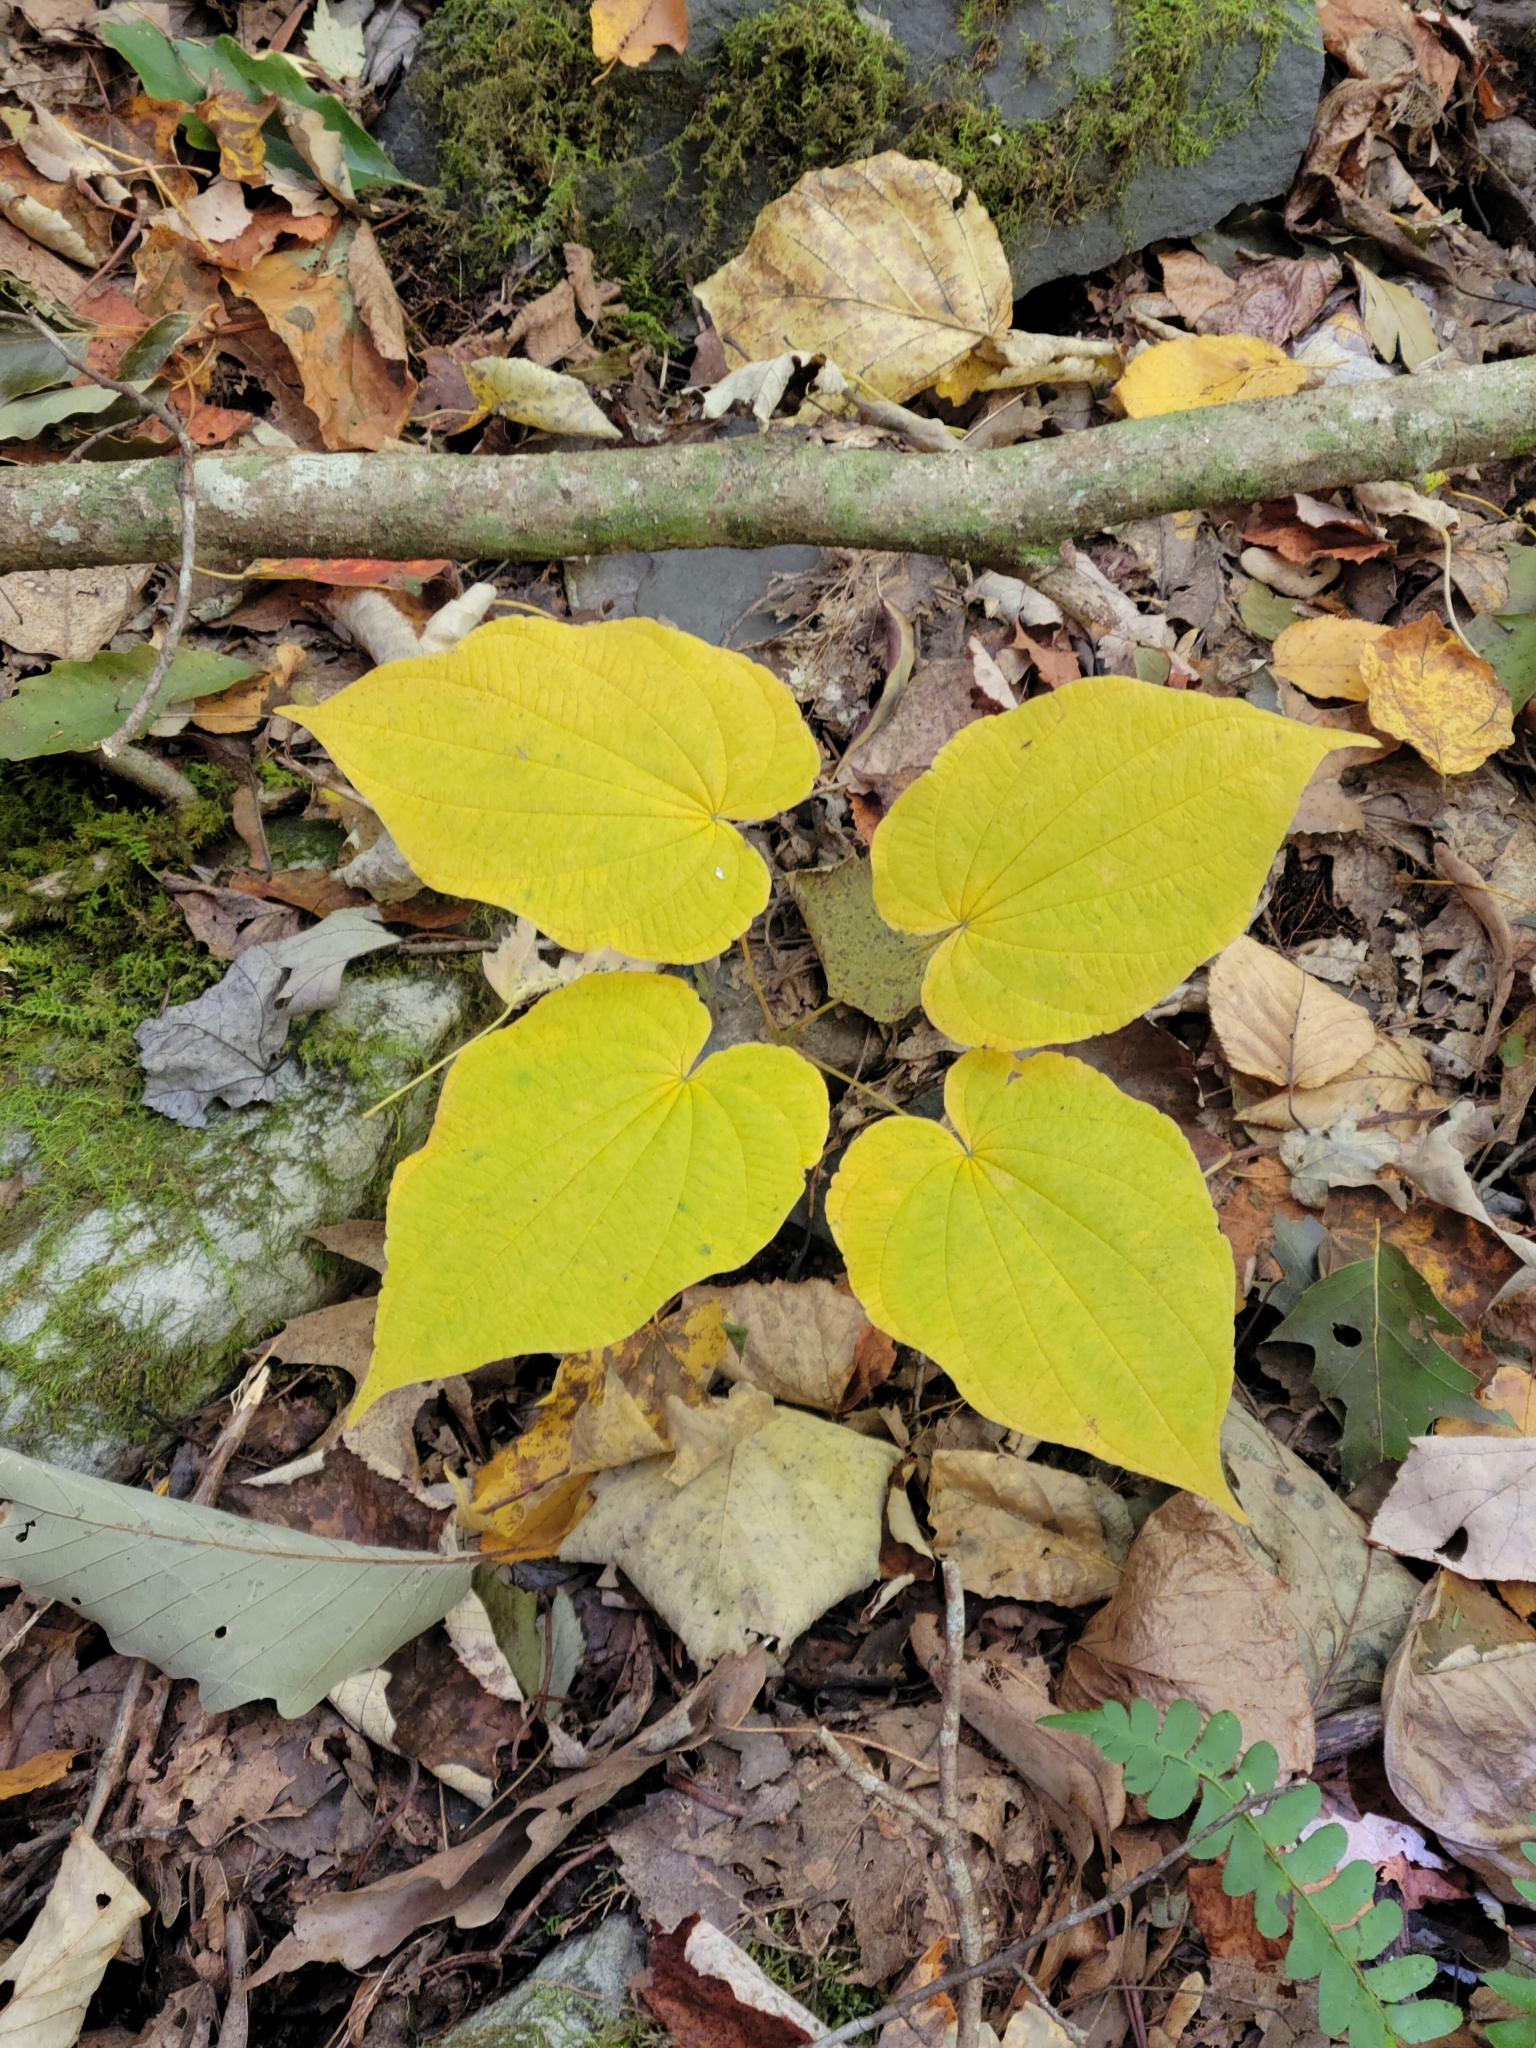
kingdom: Plantae
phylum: Tracheophyta
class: Liliopsida
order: Dioscoreales
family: Dioscoreaceae
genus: Dioscorea
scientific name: Dioscorea villosa
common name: Wild yam
